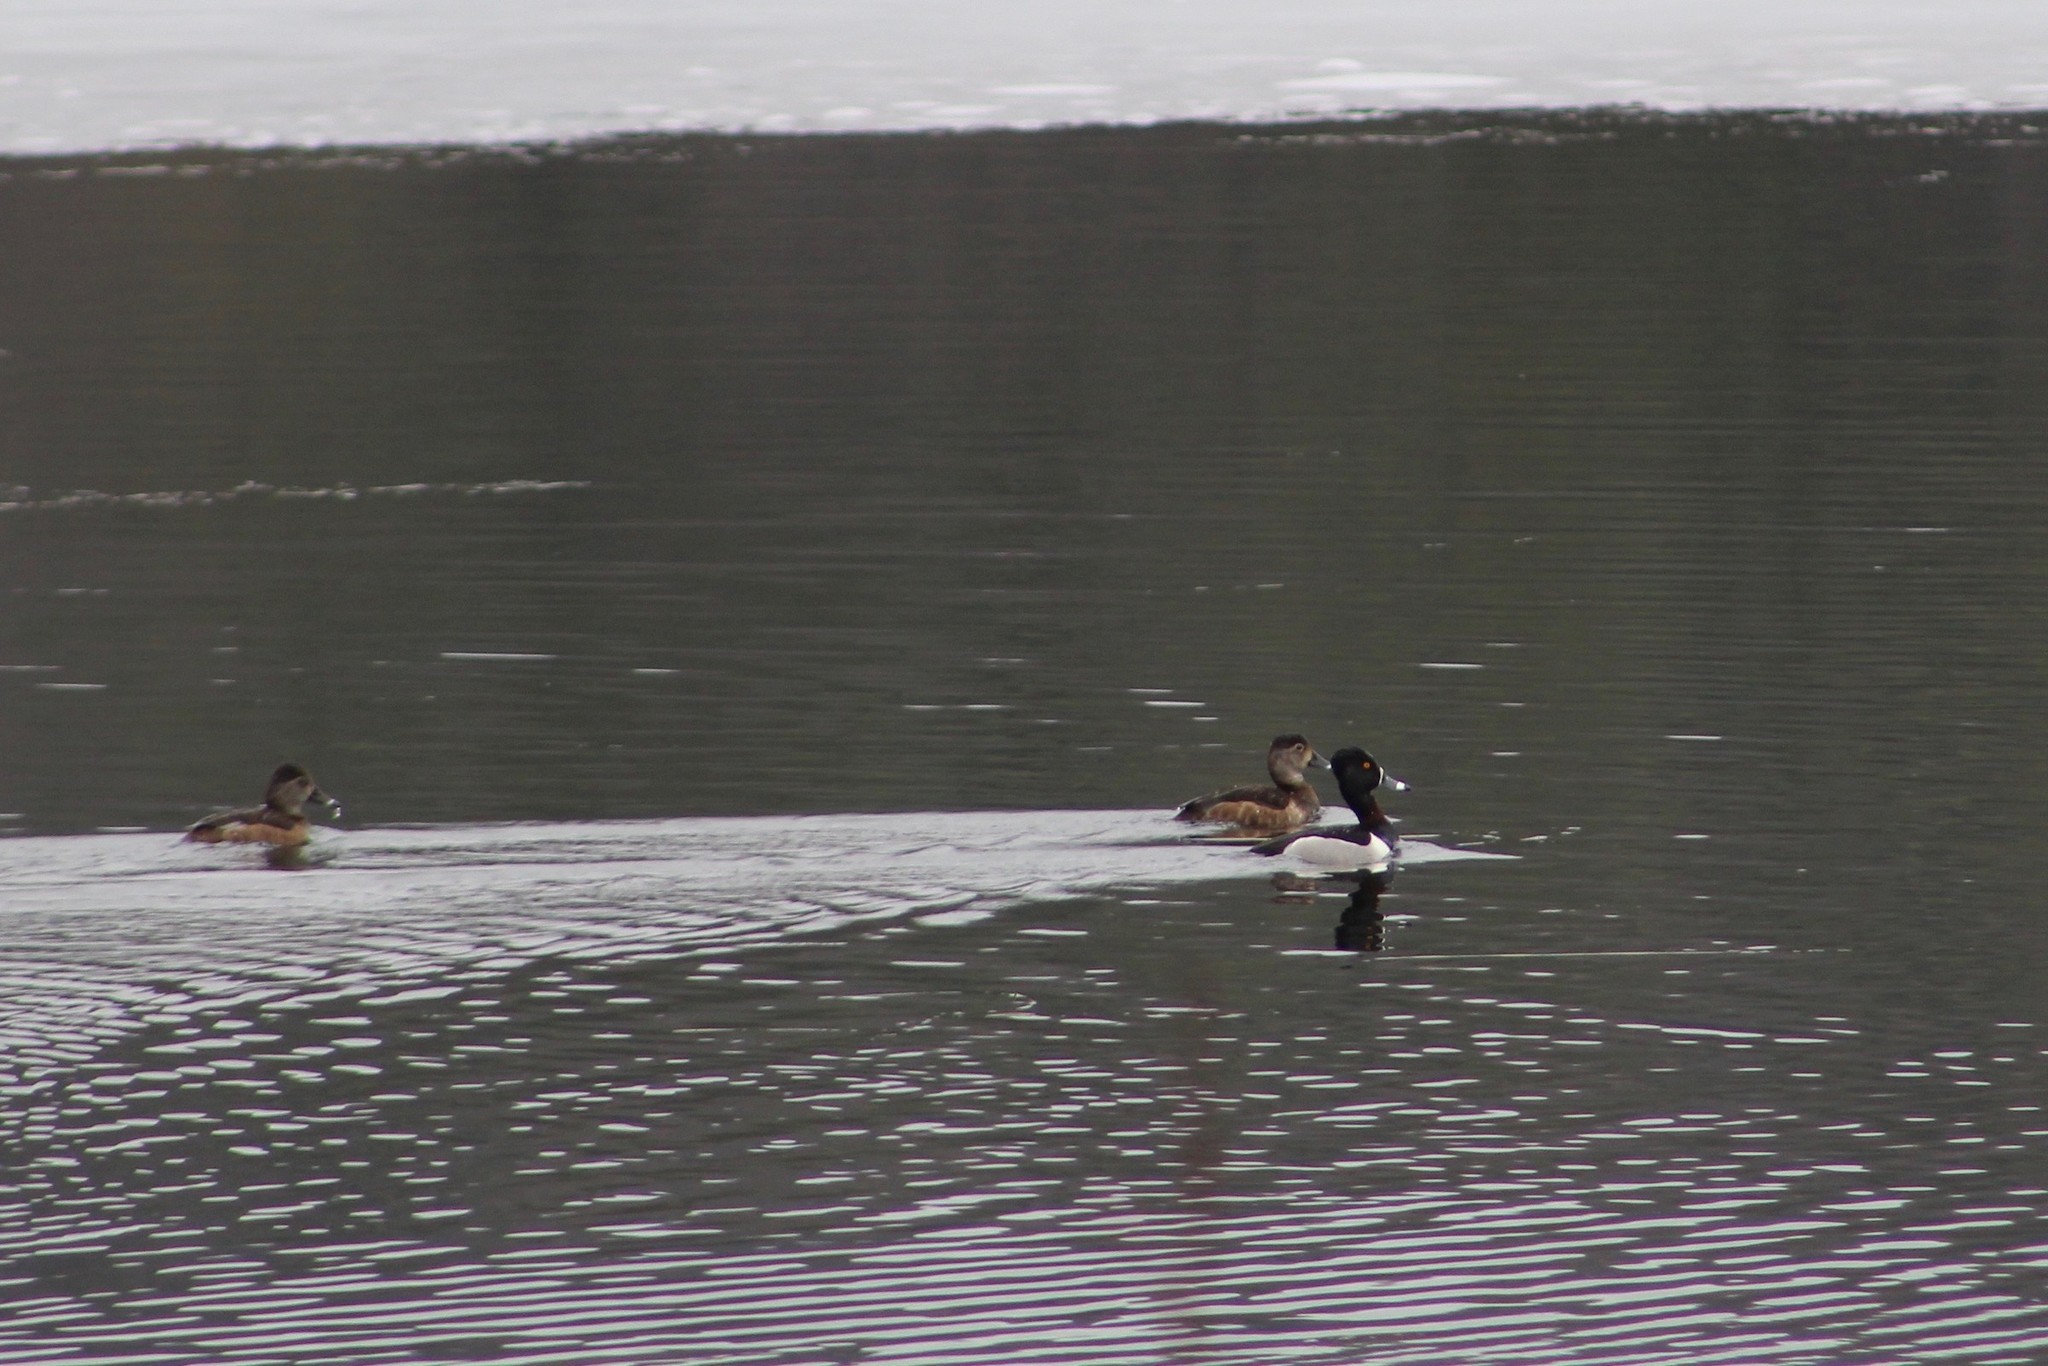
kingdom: Animalia
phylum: Chordata
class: Aves
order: Anseriformes
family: Anatidae
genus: Aythya
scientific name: Aythya collaris
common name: Ring-necked duck
